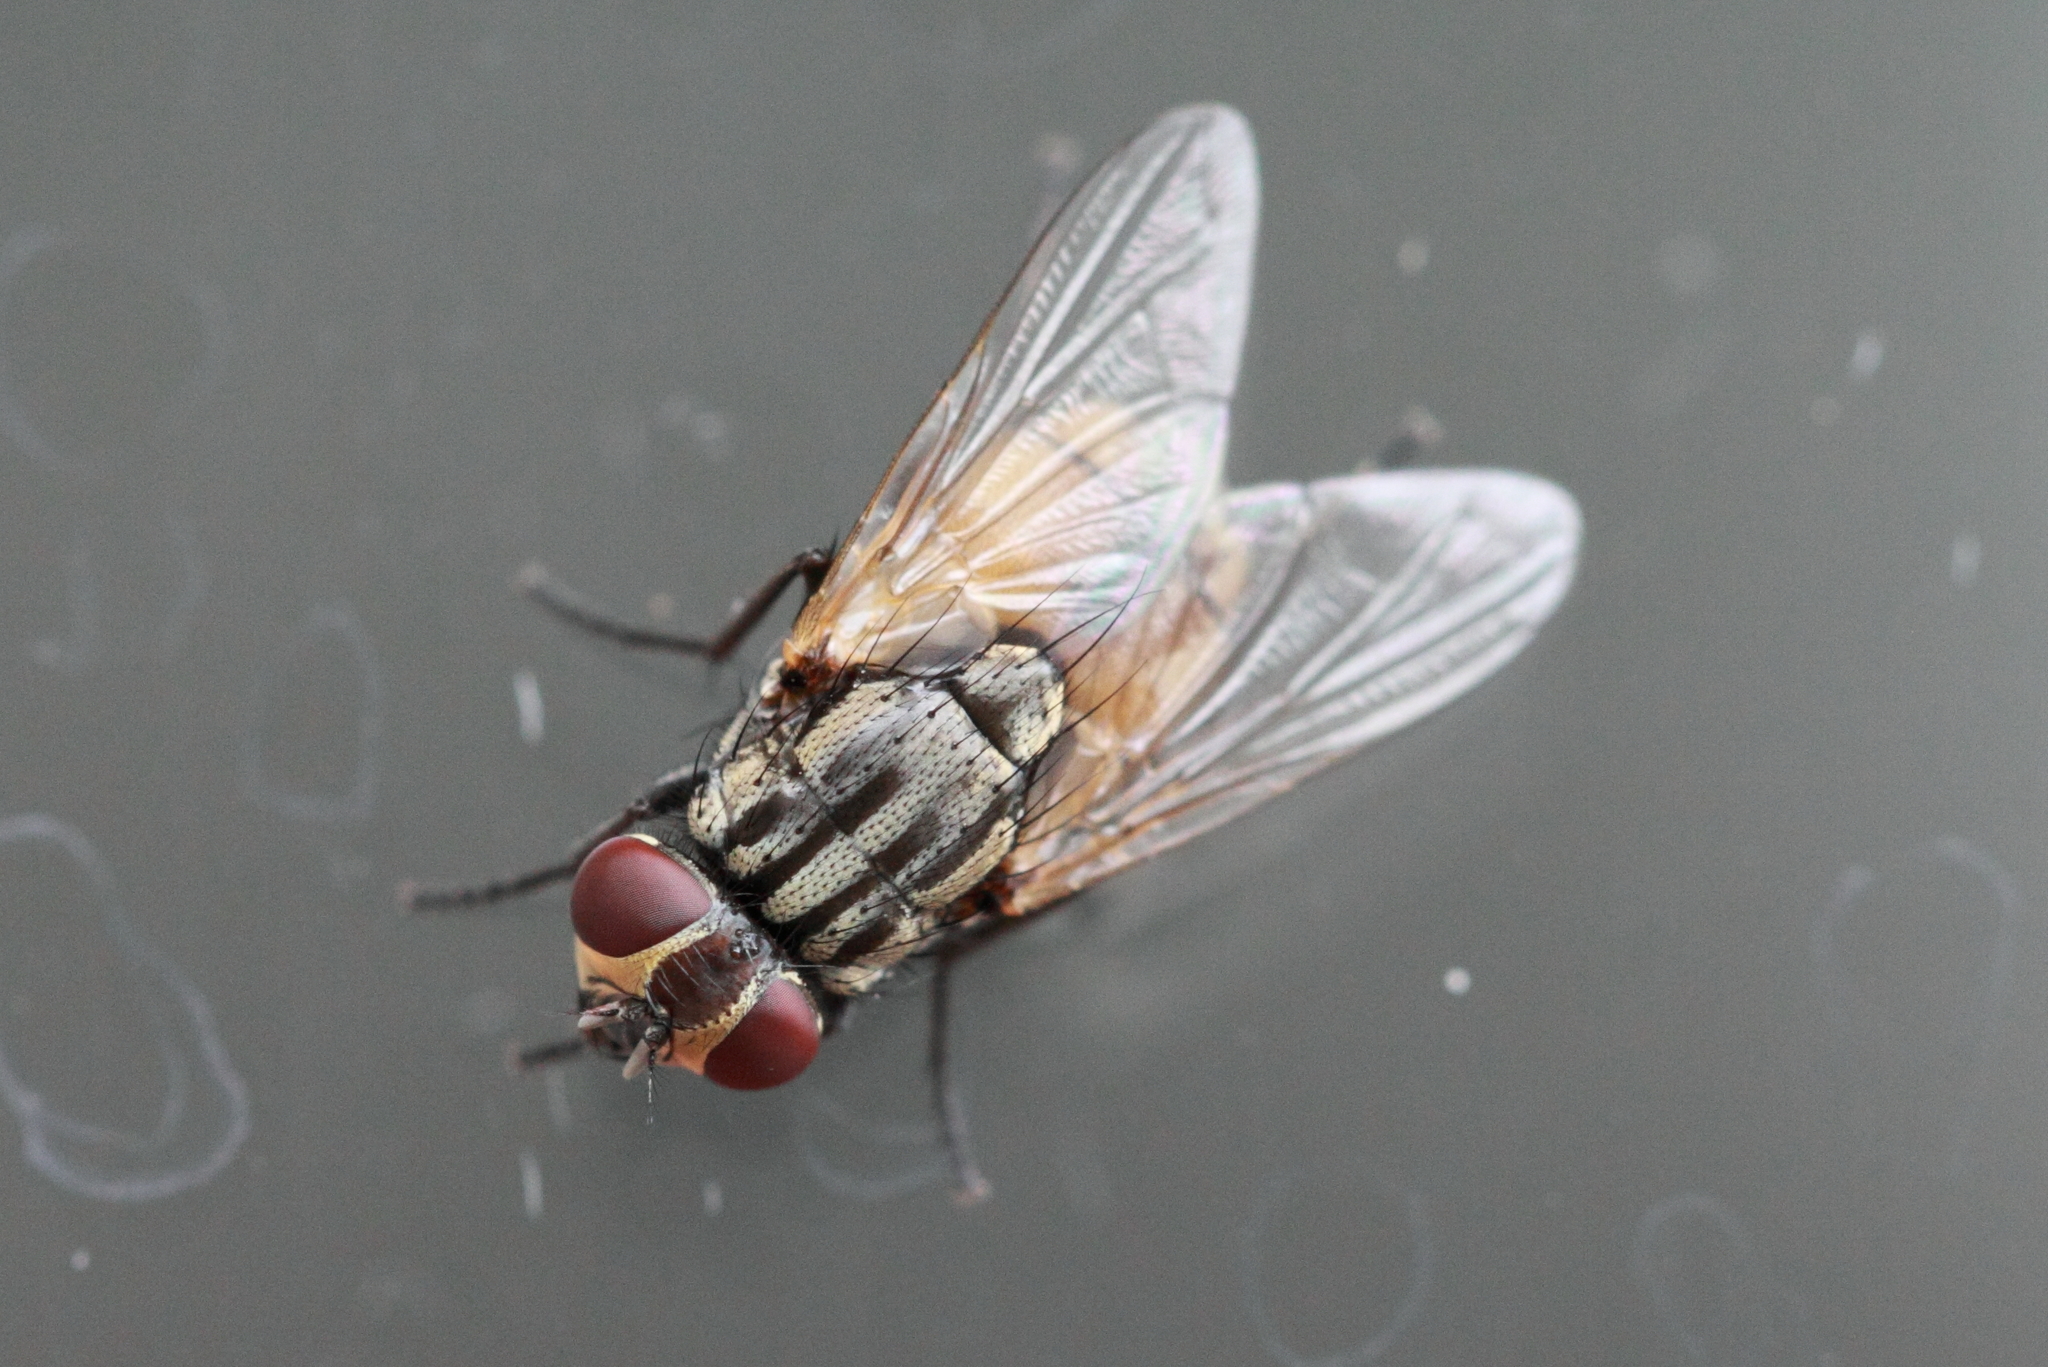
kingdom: Animalia
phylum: Arthropoda
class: Insecta
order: Diptera
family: Muscidae
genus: Musca
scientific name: Musca domestica
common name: House fly
